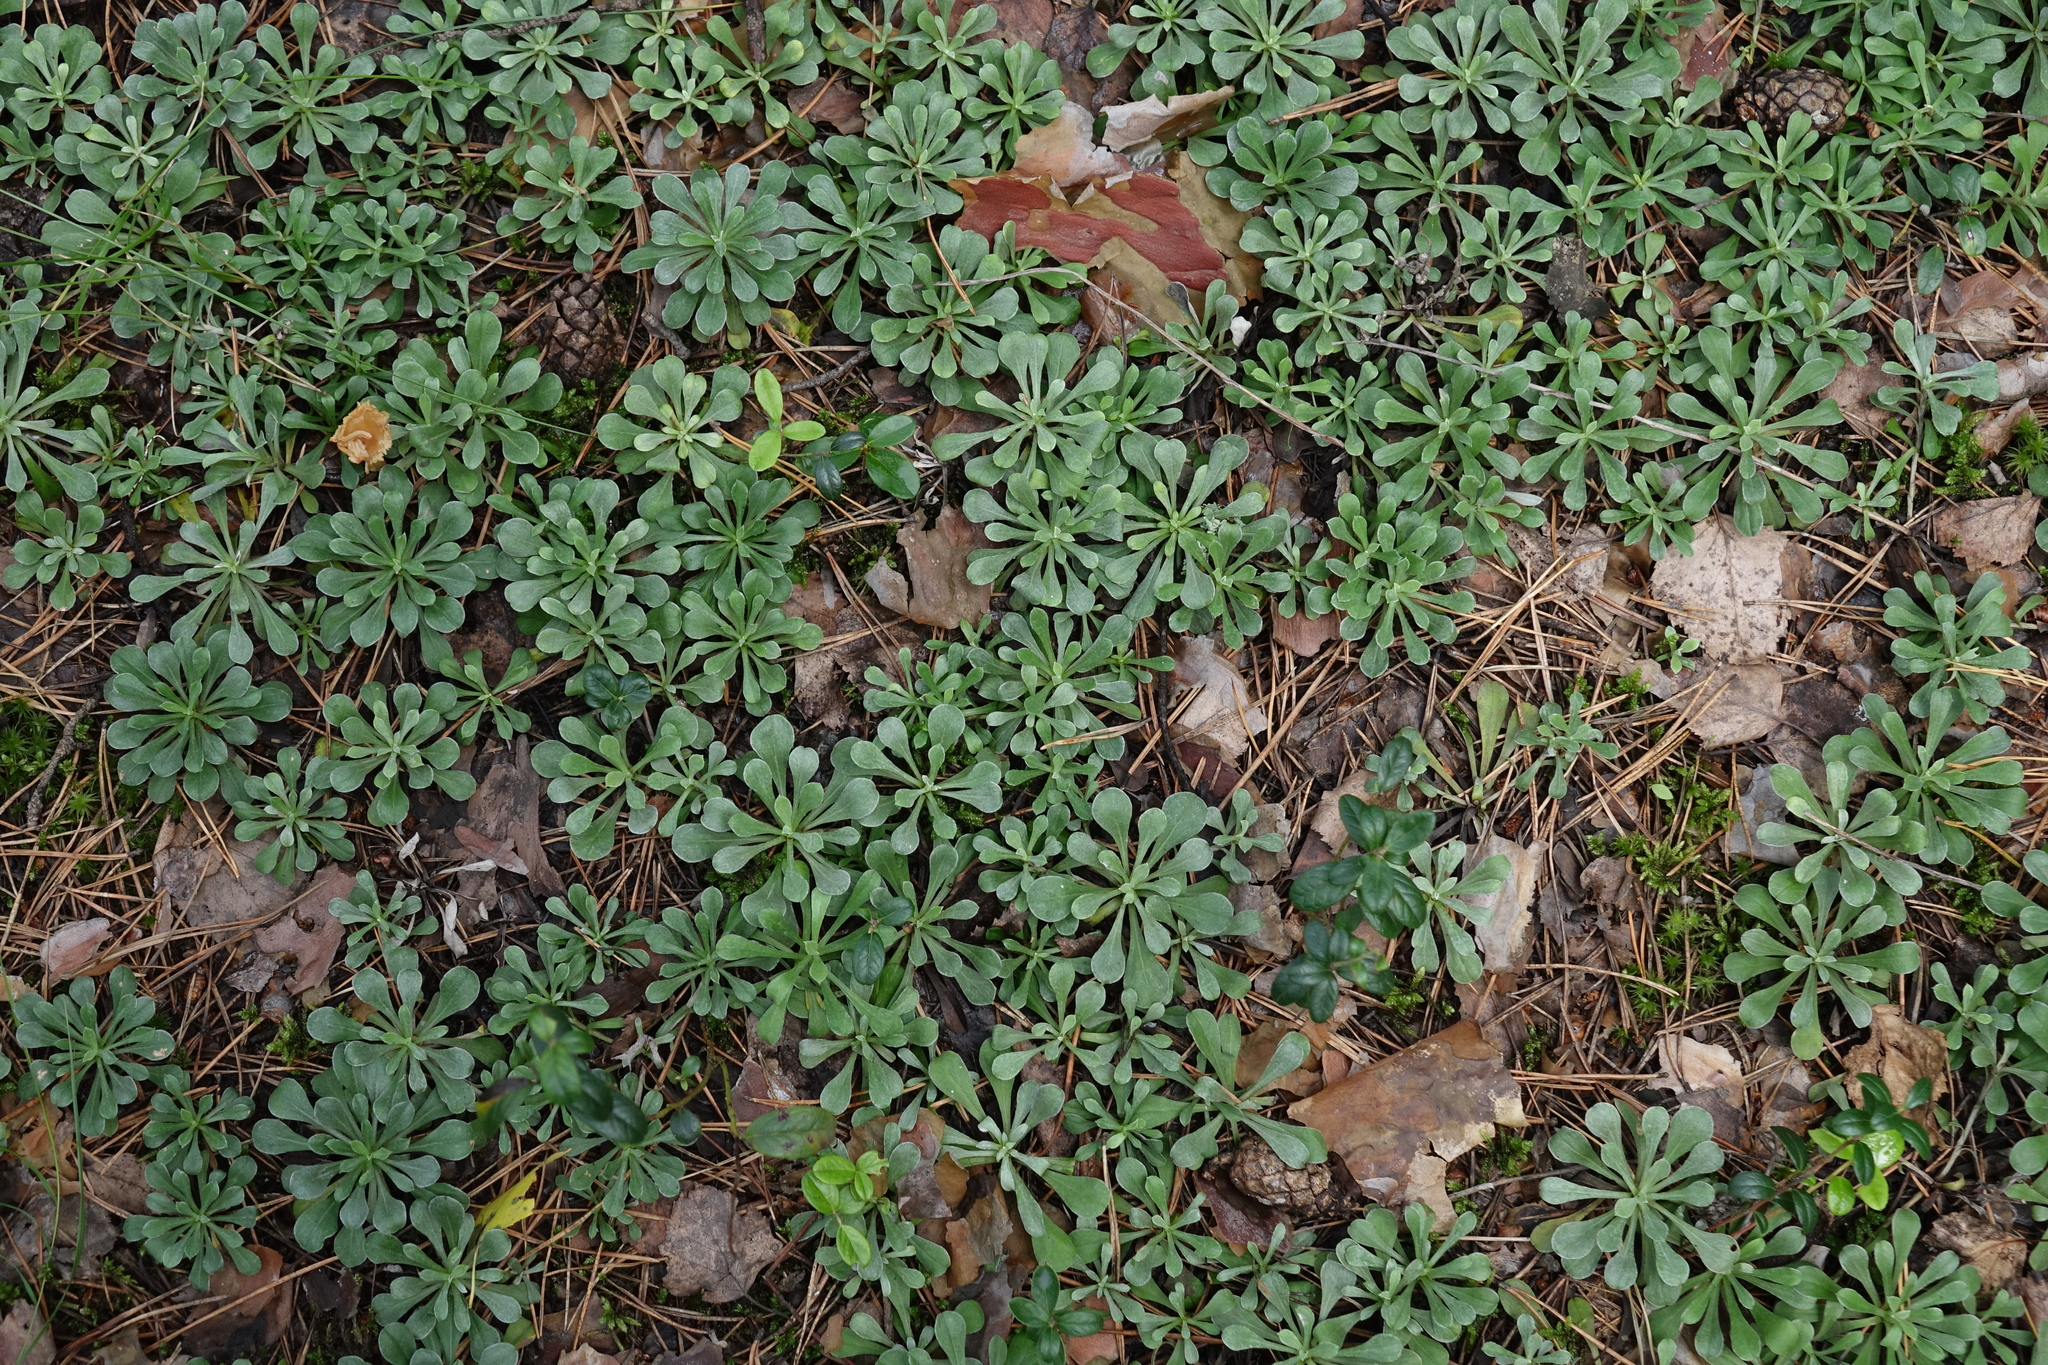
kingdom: Plantae
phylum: Tracheophyta
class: Magnoliopsida
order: Asterales
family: Asteraceae
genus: Antennaria
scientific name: Antennaria dioica
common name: Mountain everlasting
